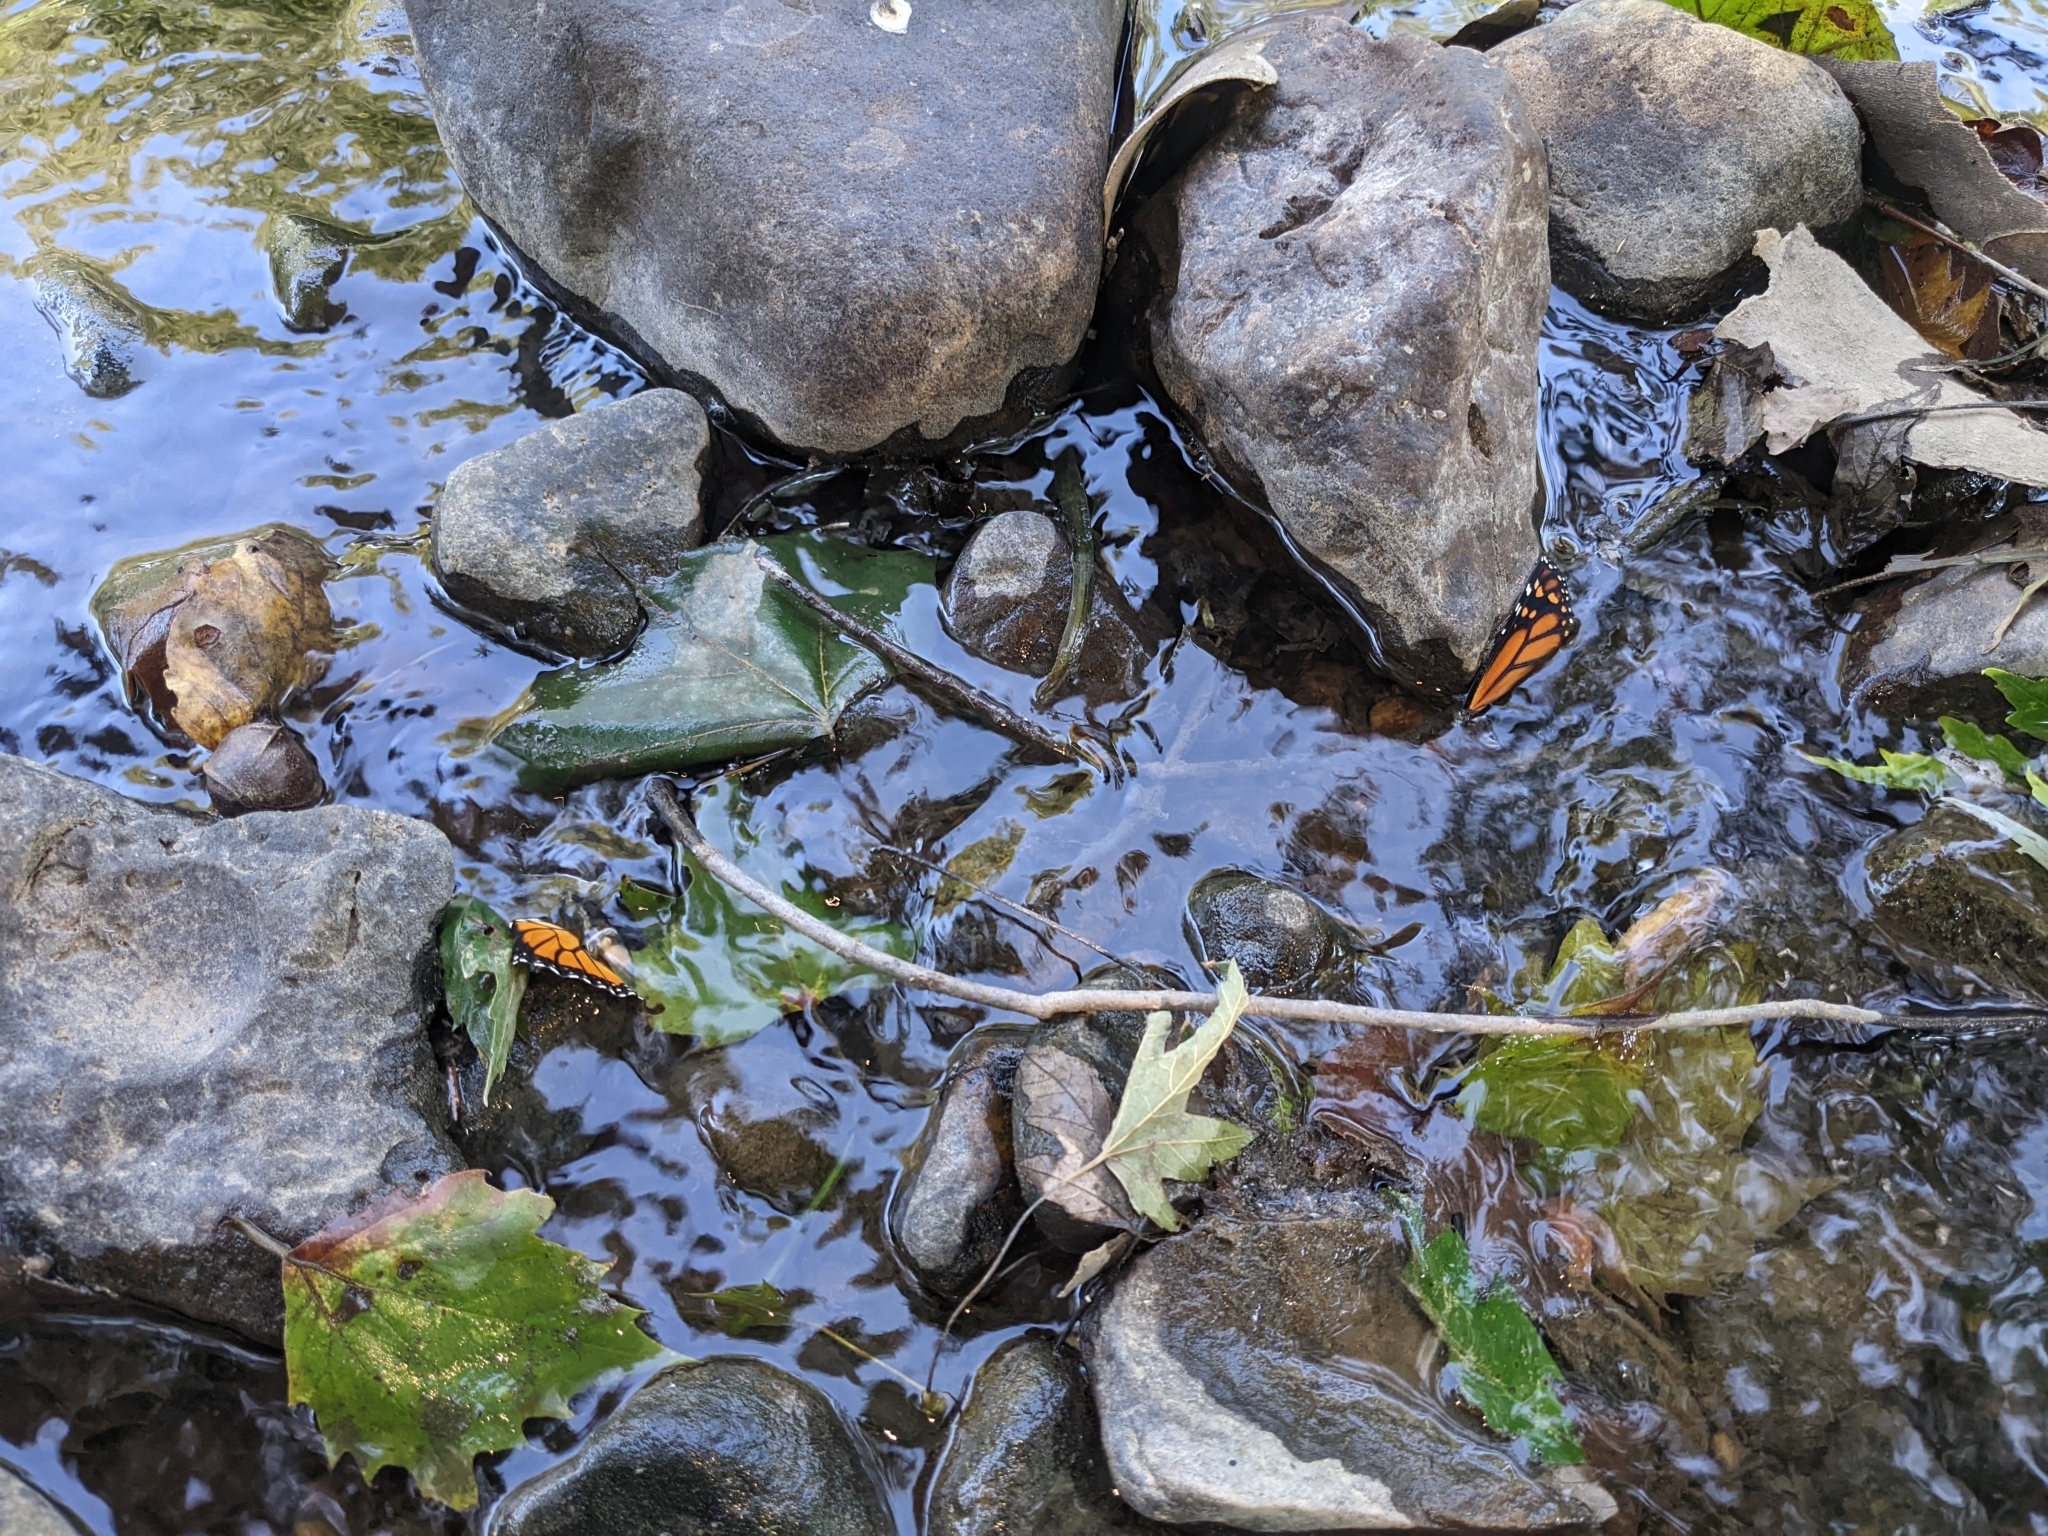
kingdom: Animalia
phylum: Arthropoda
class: Insecta
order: Lepidoptera
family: Nymphalidae
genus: Danaus
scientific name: Danaus plexippus
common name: Monarch
